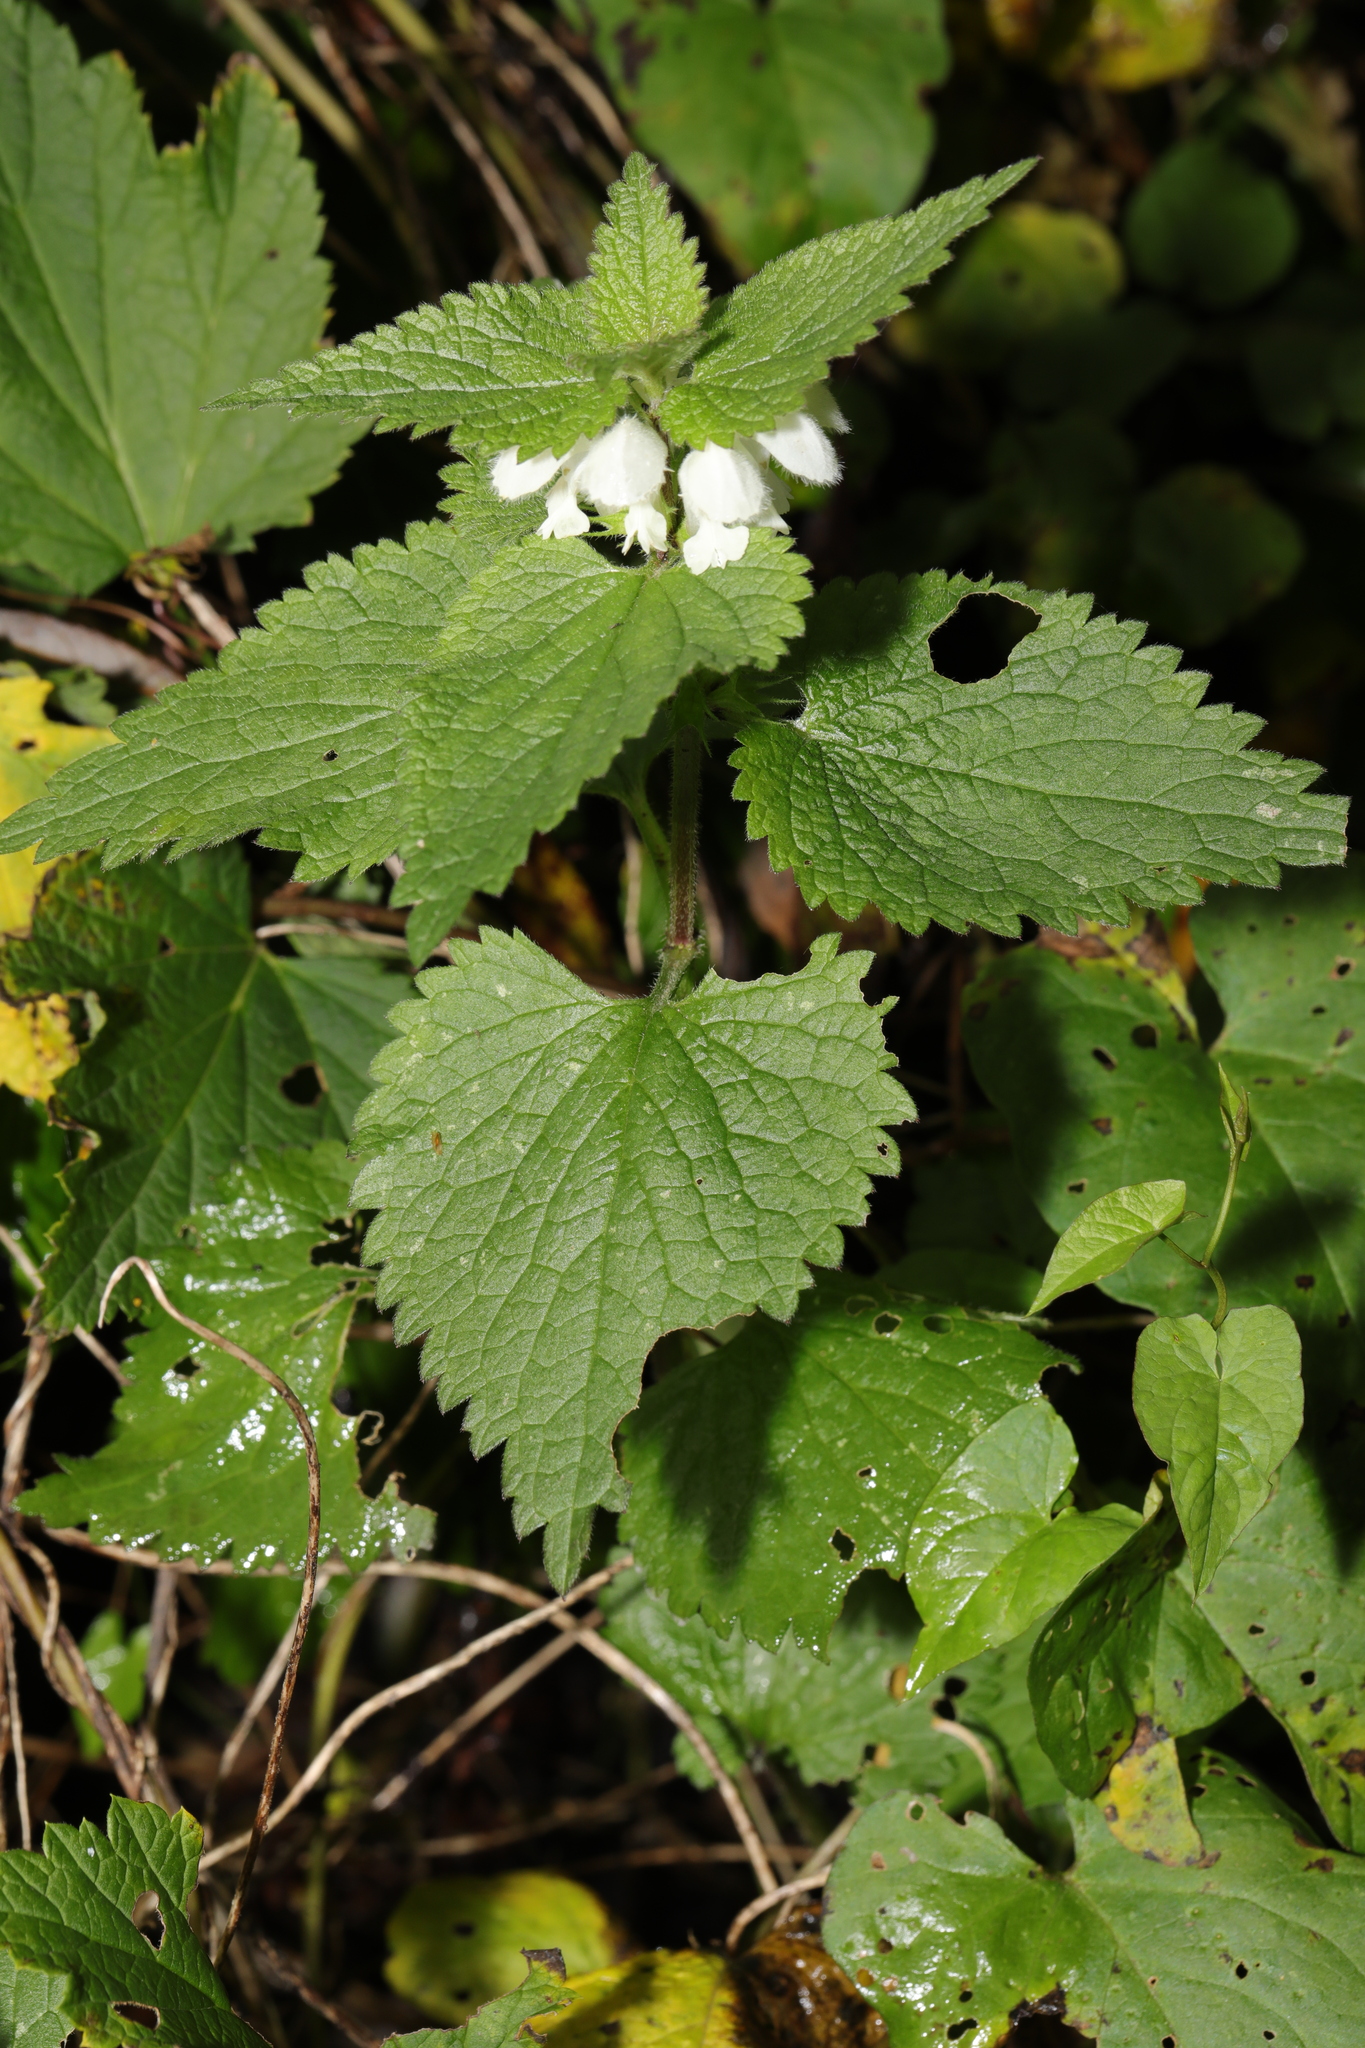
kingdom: Plantae
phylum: Tracheophyta
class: Magnoliopsida
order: Lamiales
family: Lamiaceae
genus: Lamium
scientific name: Lamium album
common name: White dead-nettle
